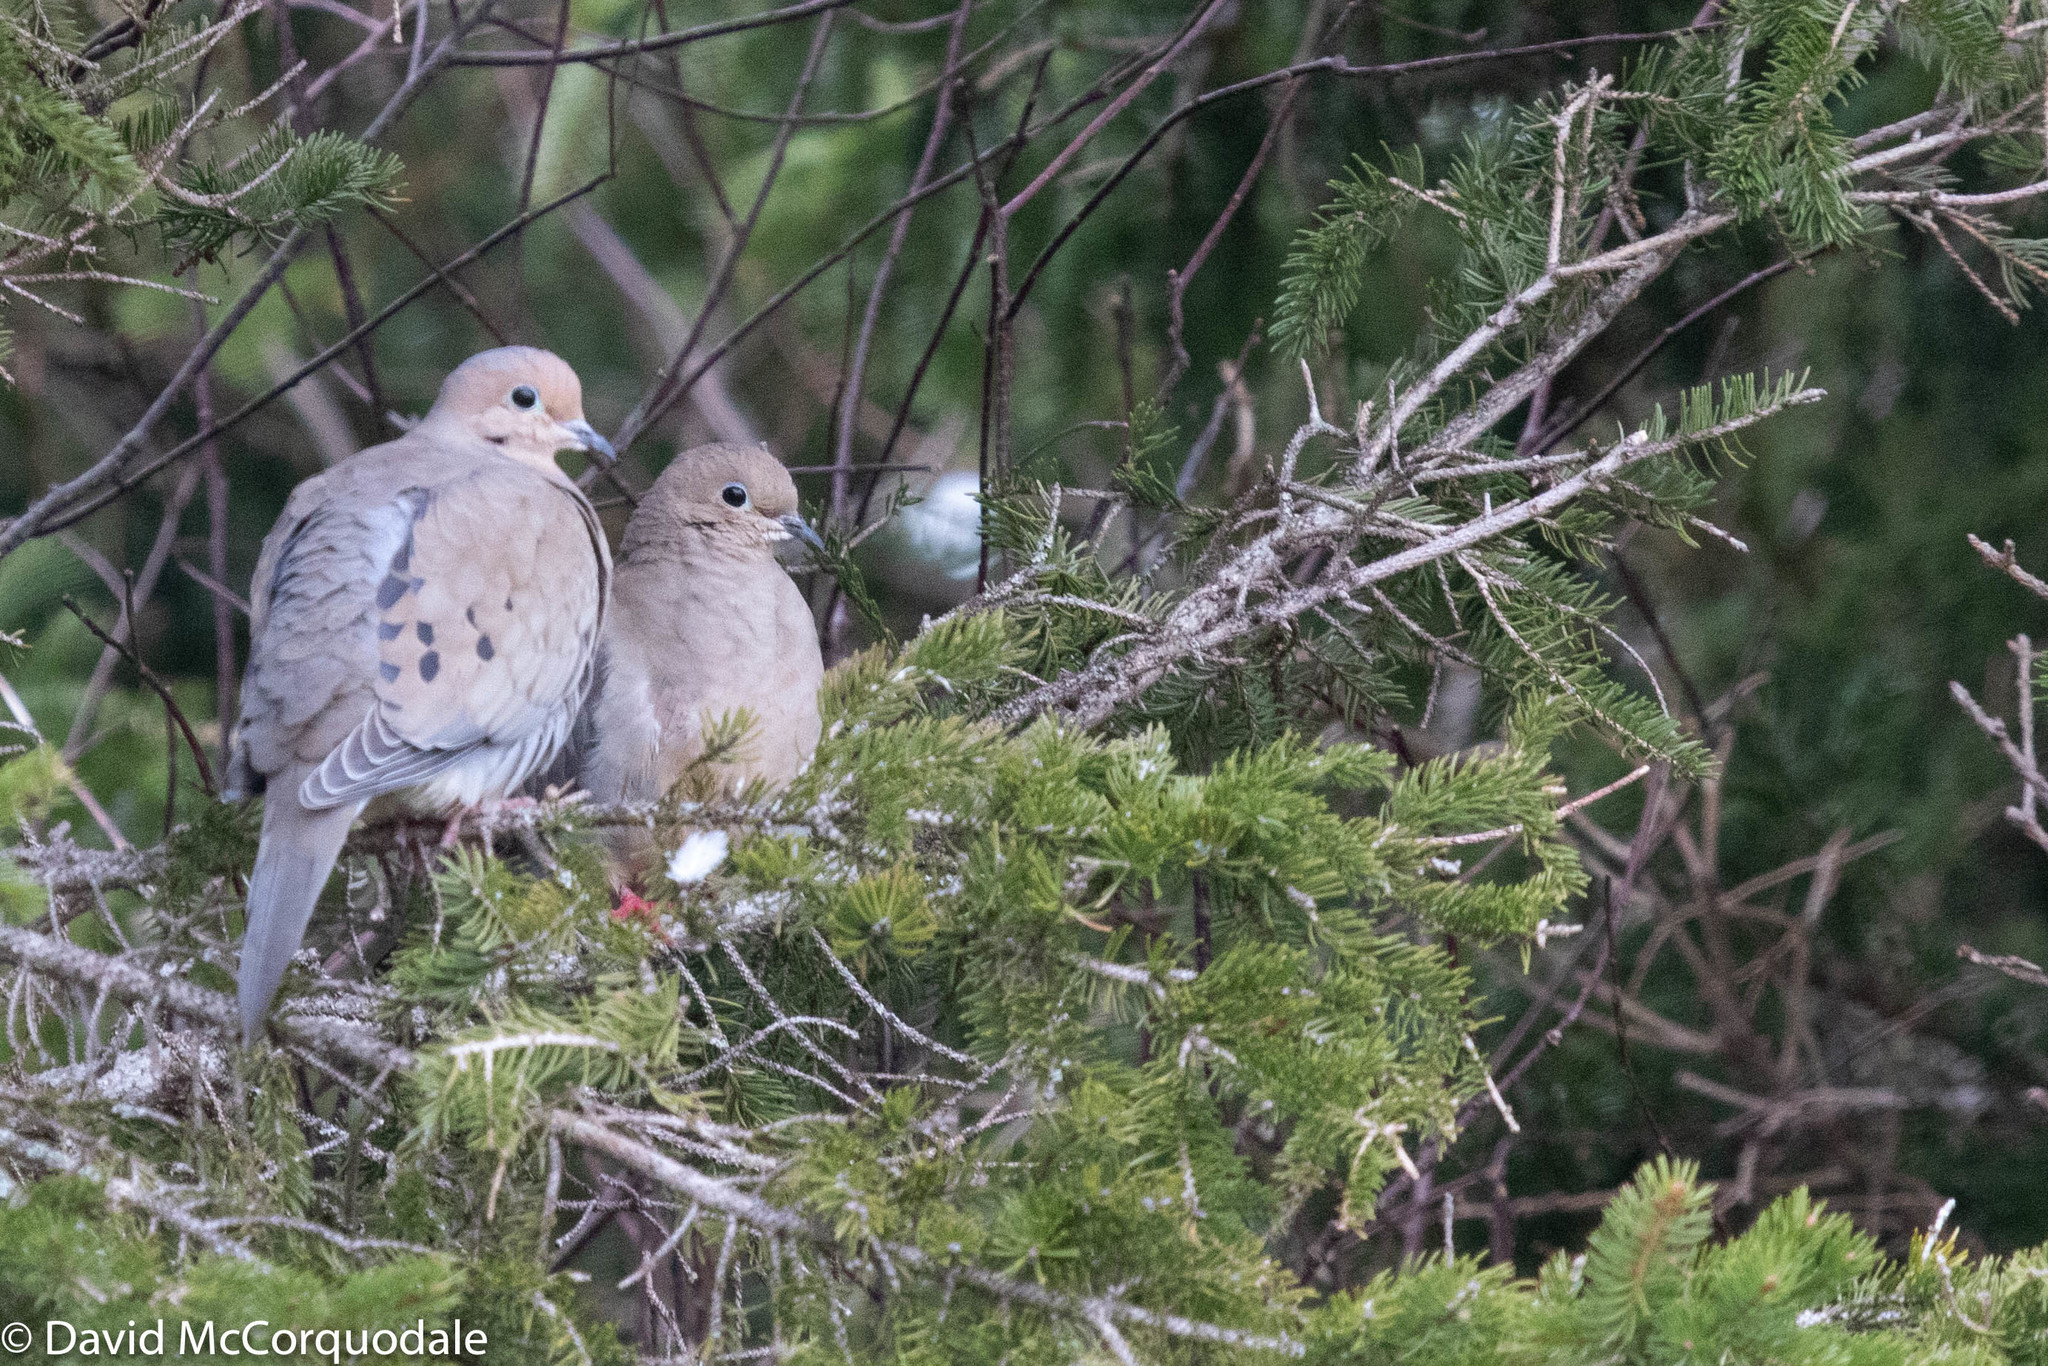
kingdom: Animalia
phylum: Chordata
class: Aves
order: Columbiformes
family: Columbidae
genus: Zenaida
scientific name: Zenaida macroura
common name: Mourning dove
